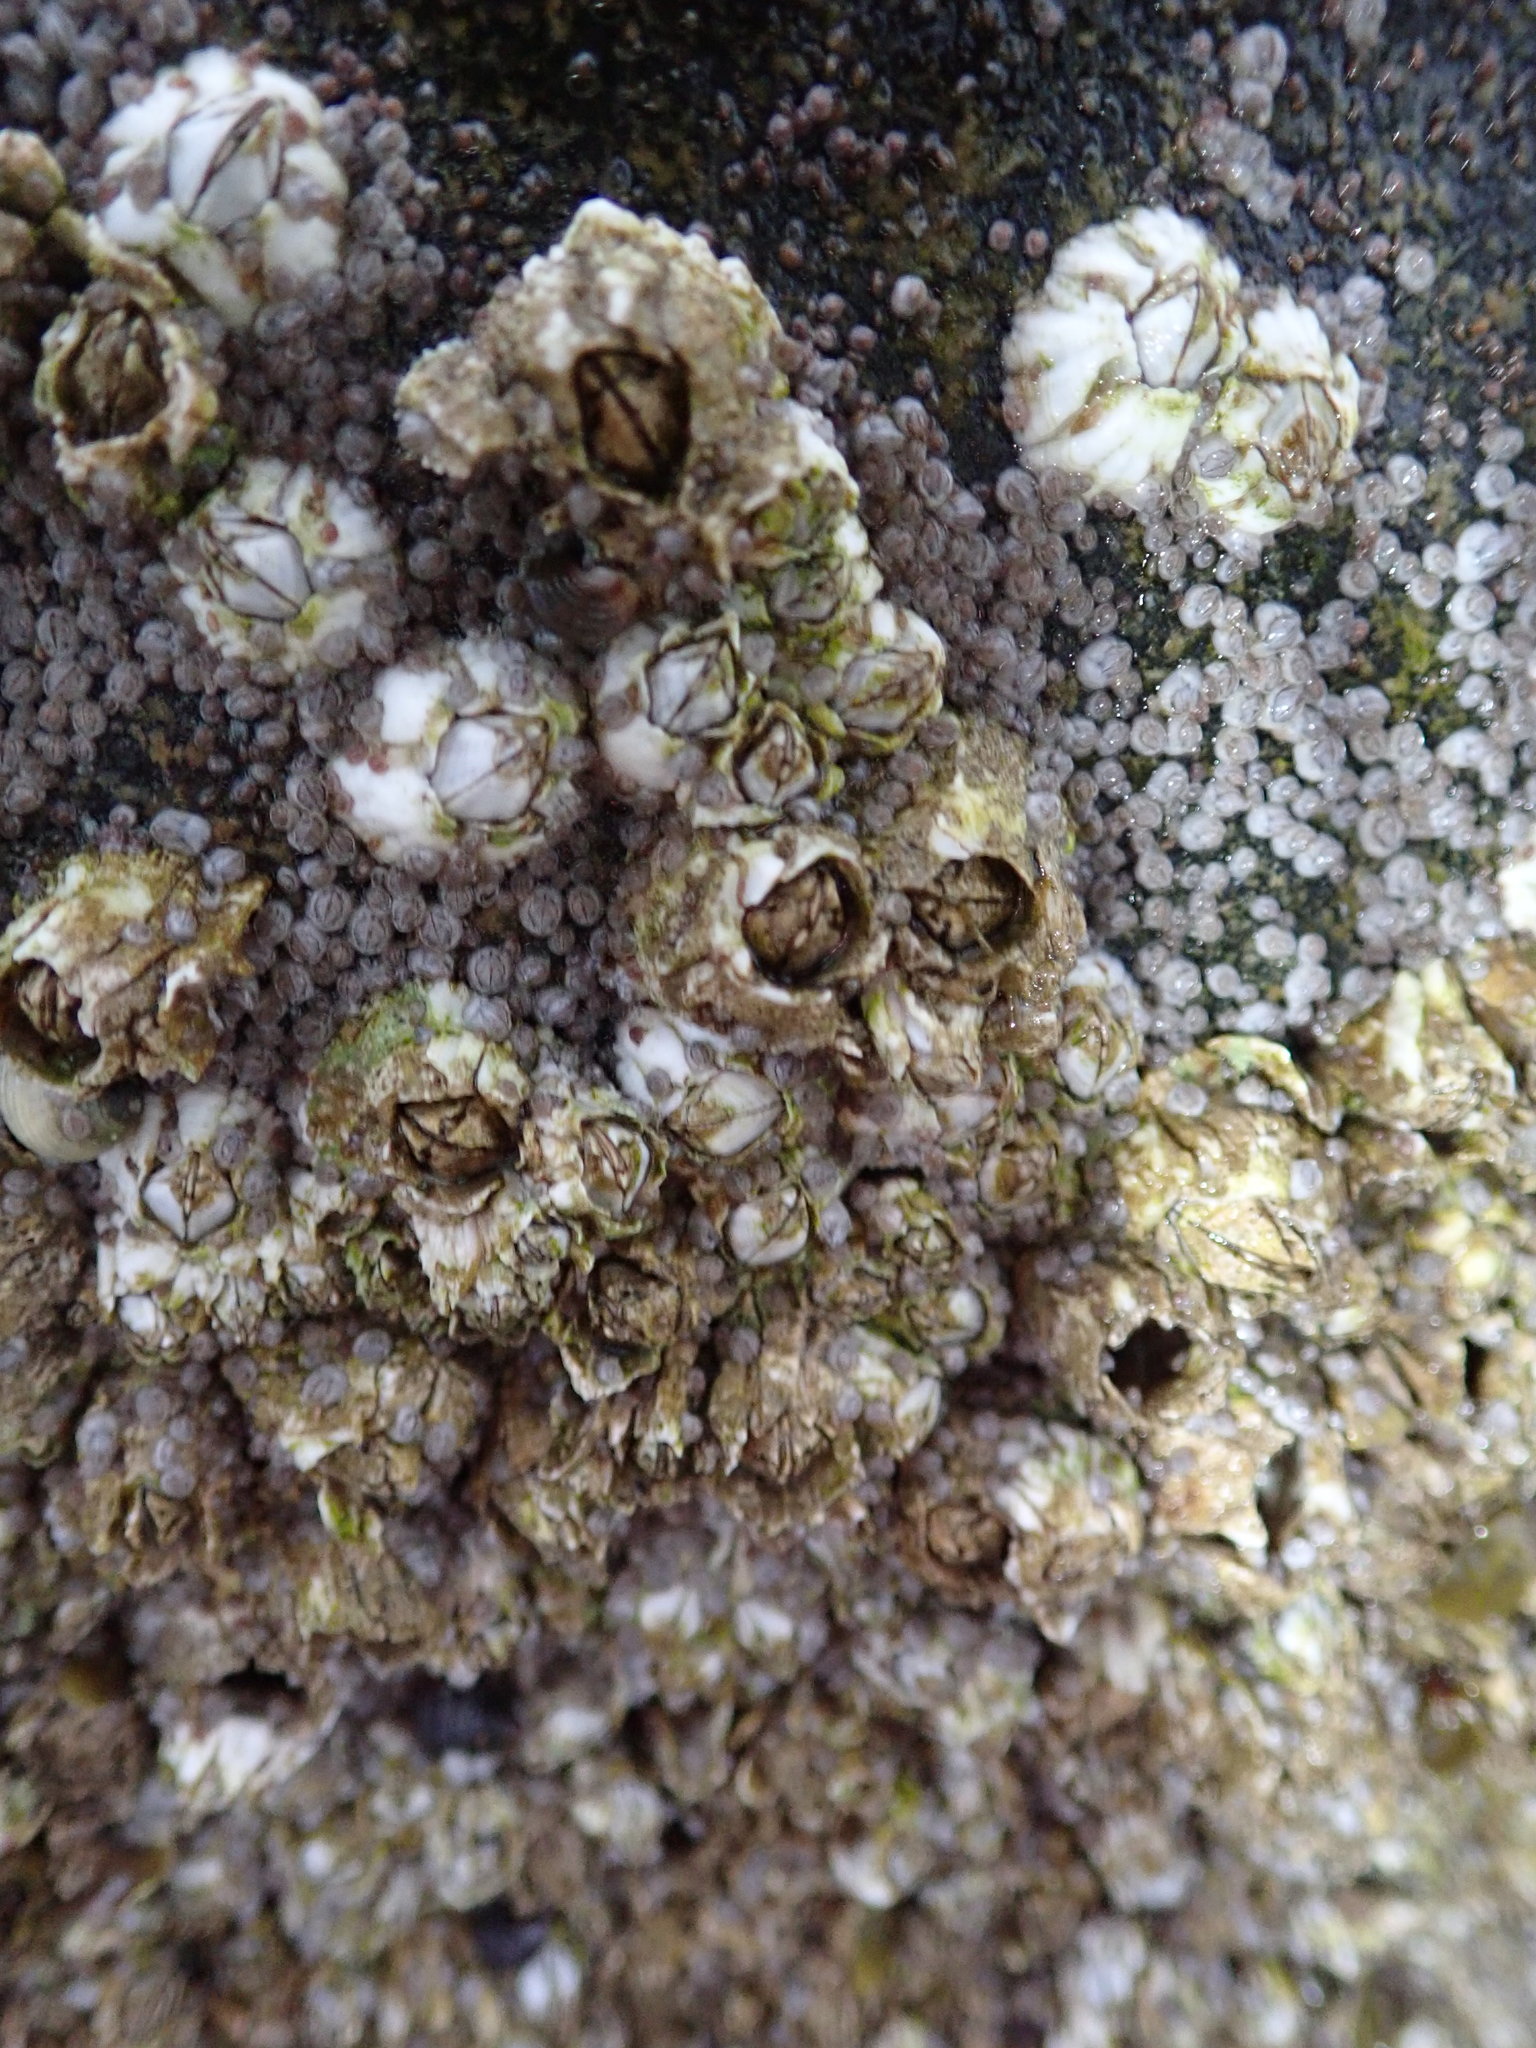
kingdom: Animalia
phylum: Arthropoda
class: Maxillopoda
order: Sessilia
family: Archaeobalanidae
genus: Semibalanus
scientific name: Semibalanus balanoides
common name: Acorn barnacle
